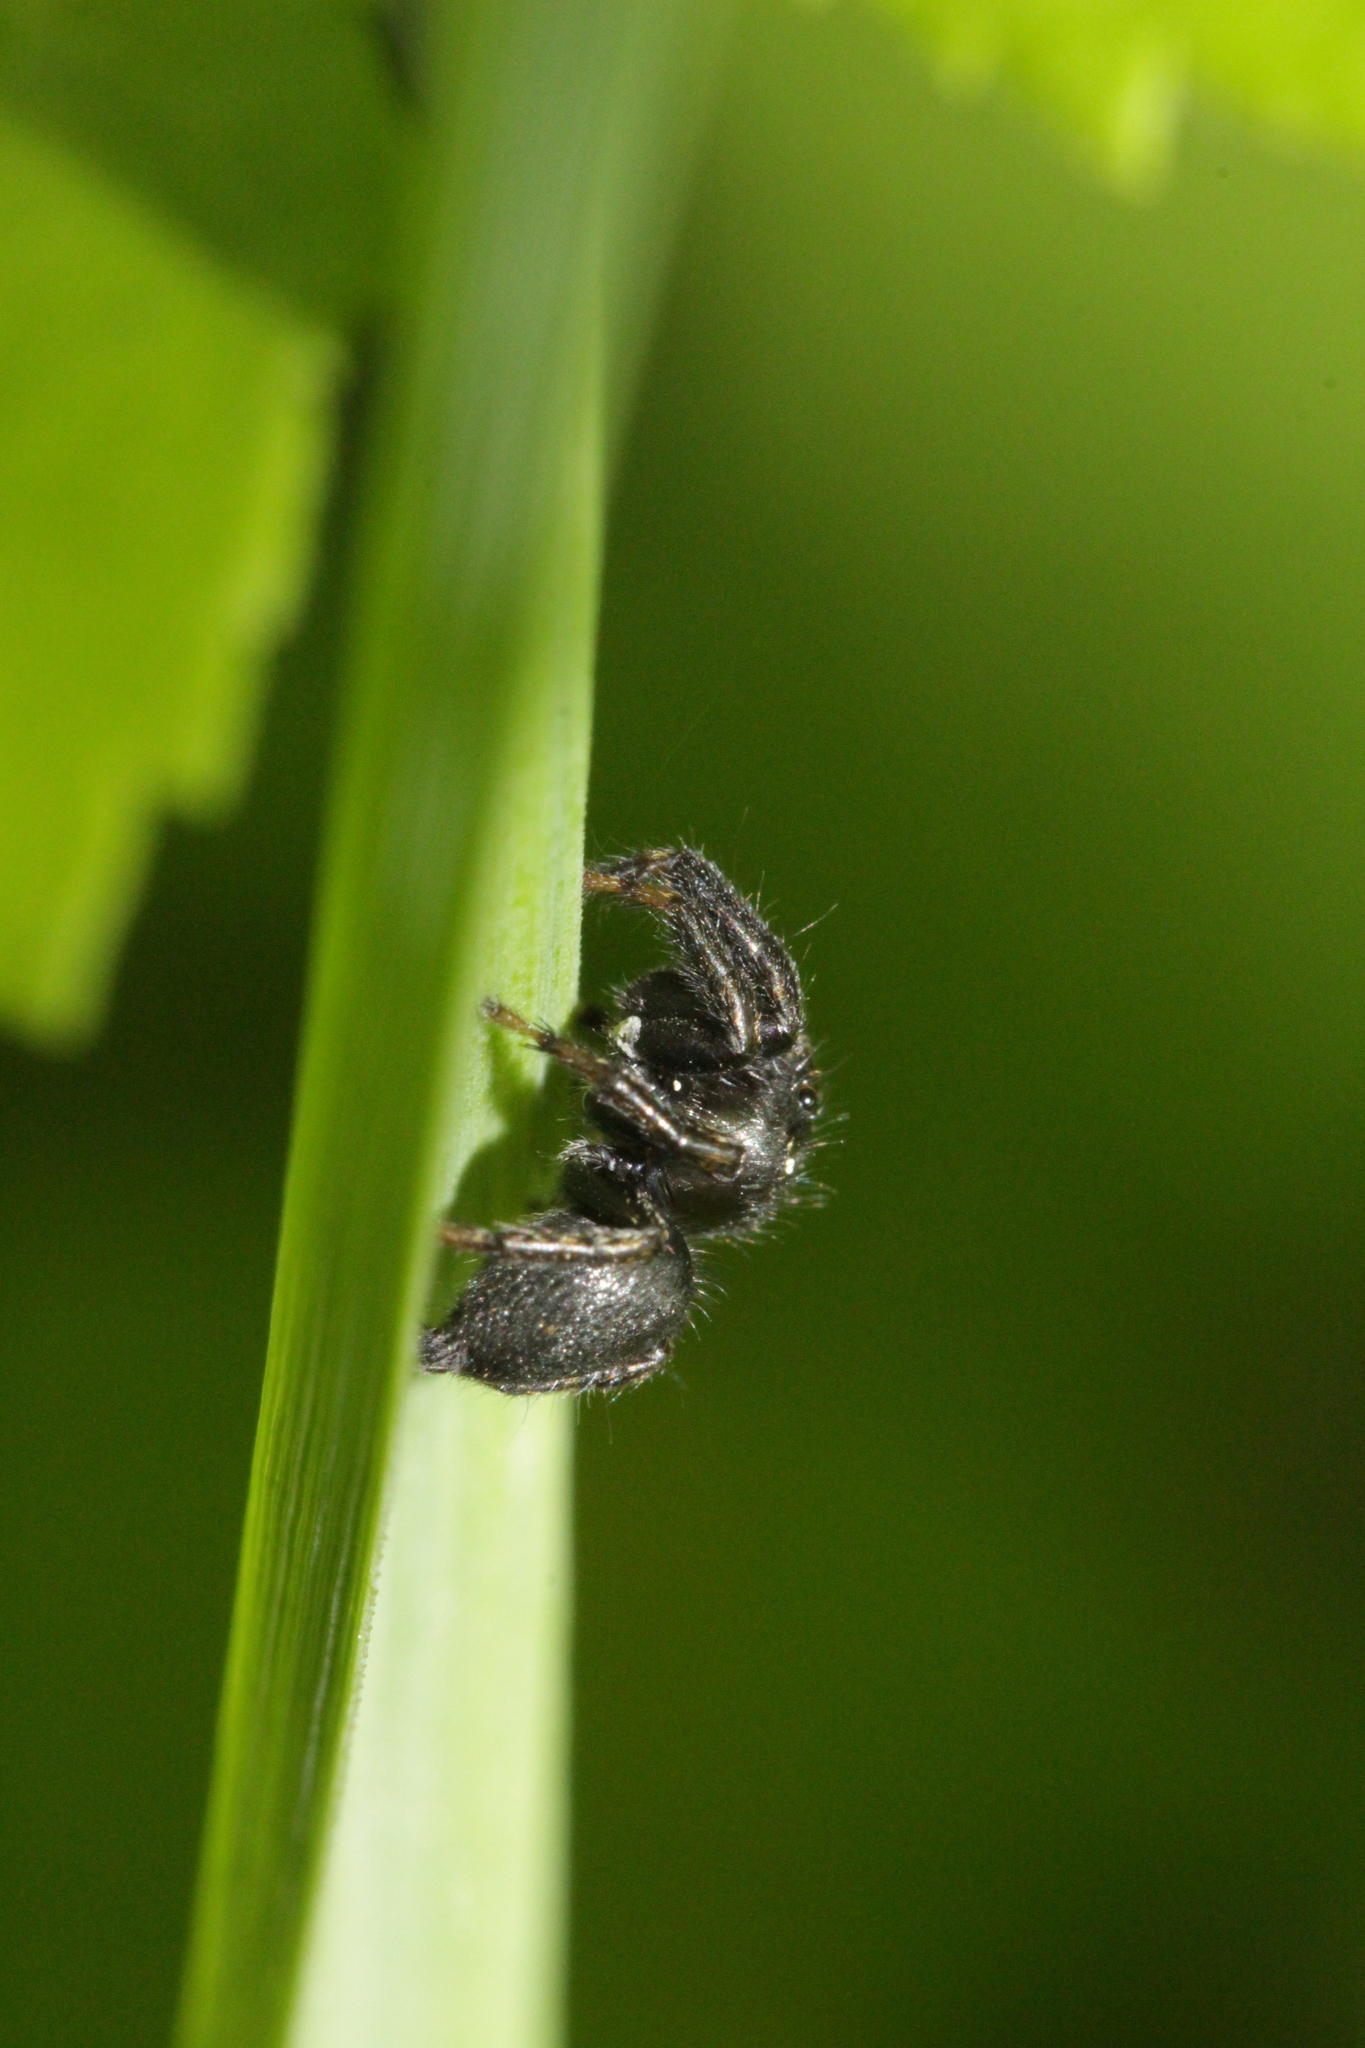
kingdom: Animalia
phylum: Arthropoda
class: Arachnida
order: Araneae
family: Salticidae
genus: Evarcha
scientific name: Evarcha arcuata
